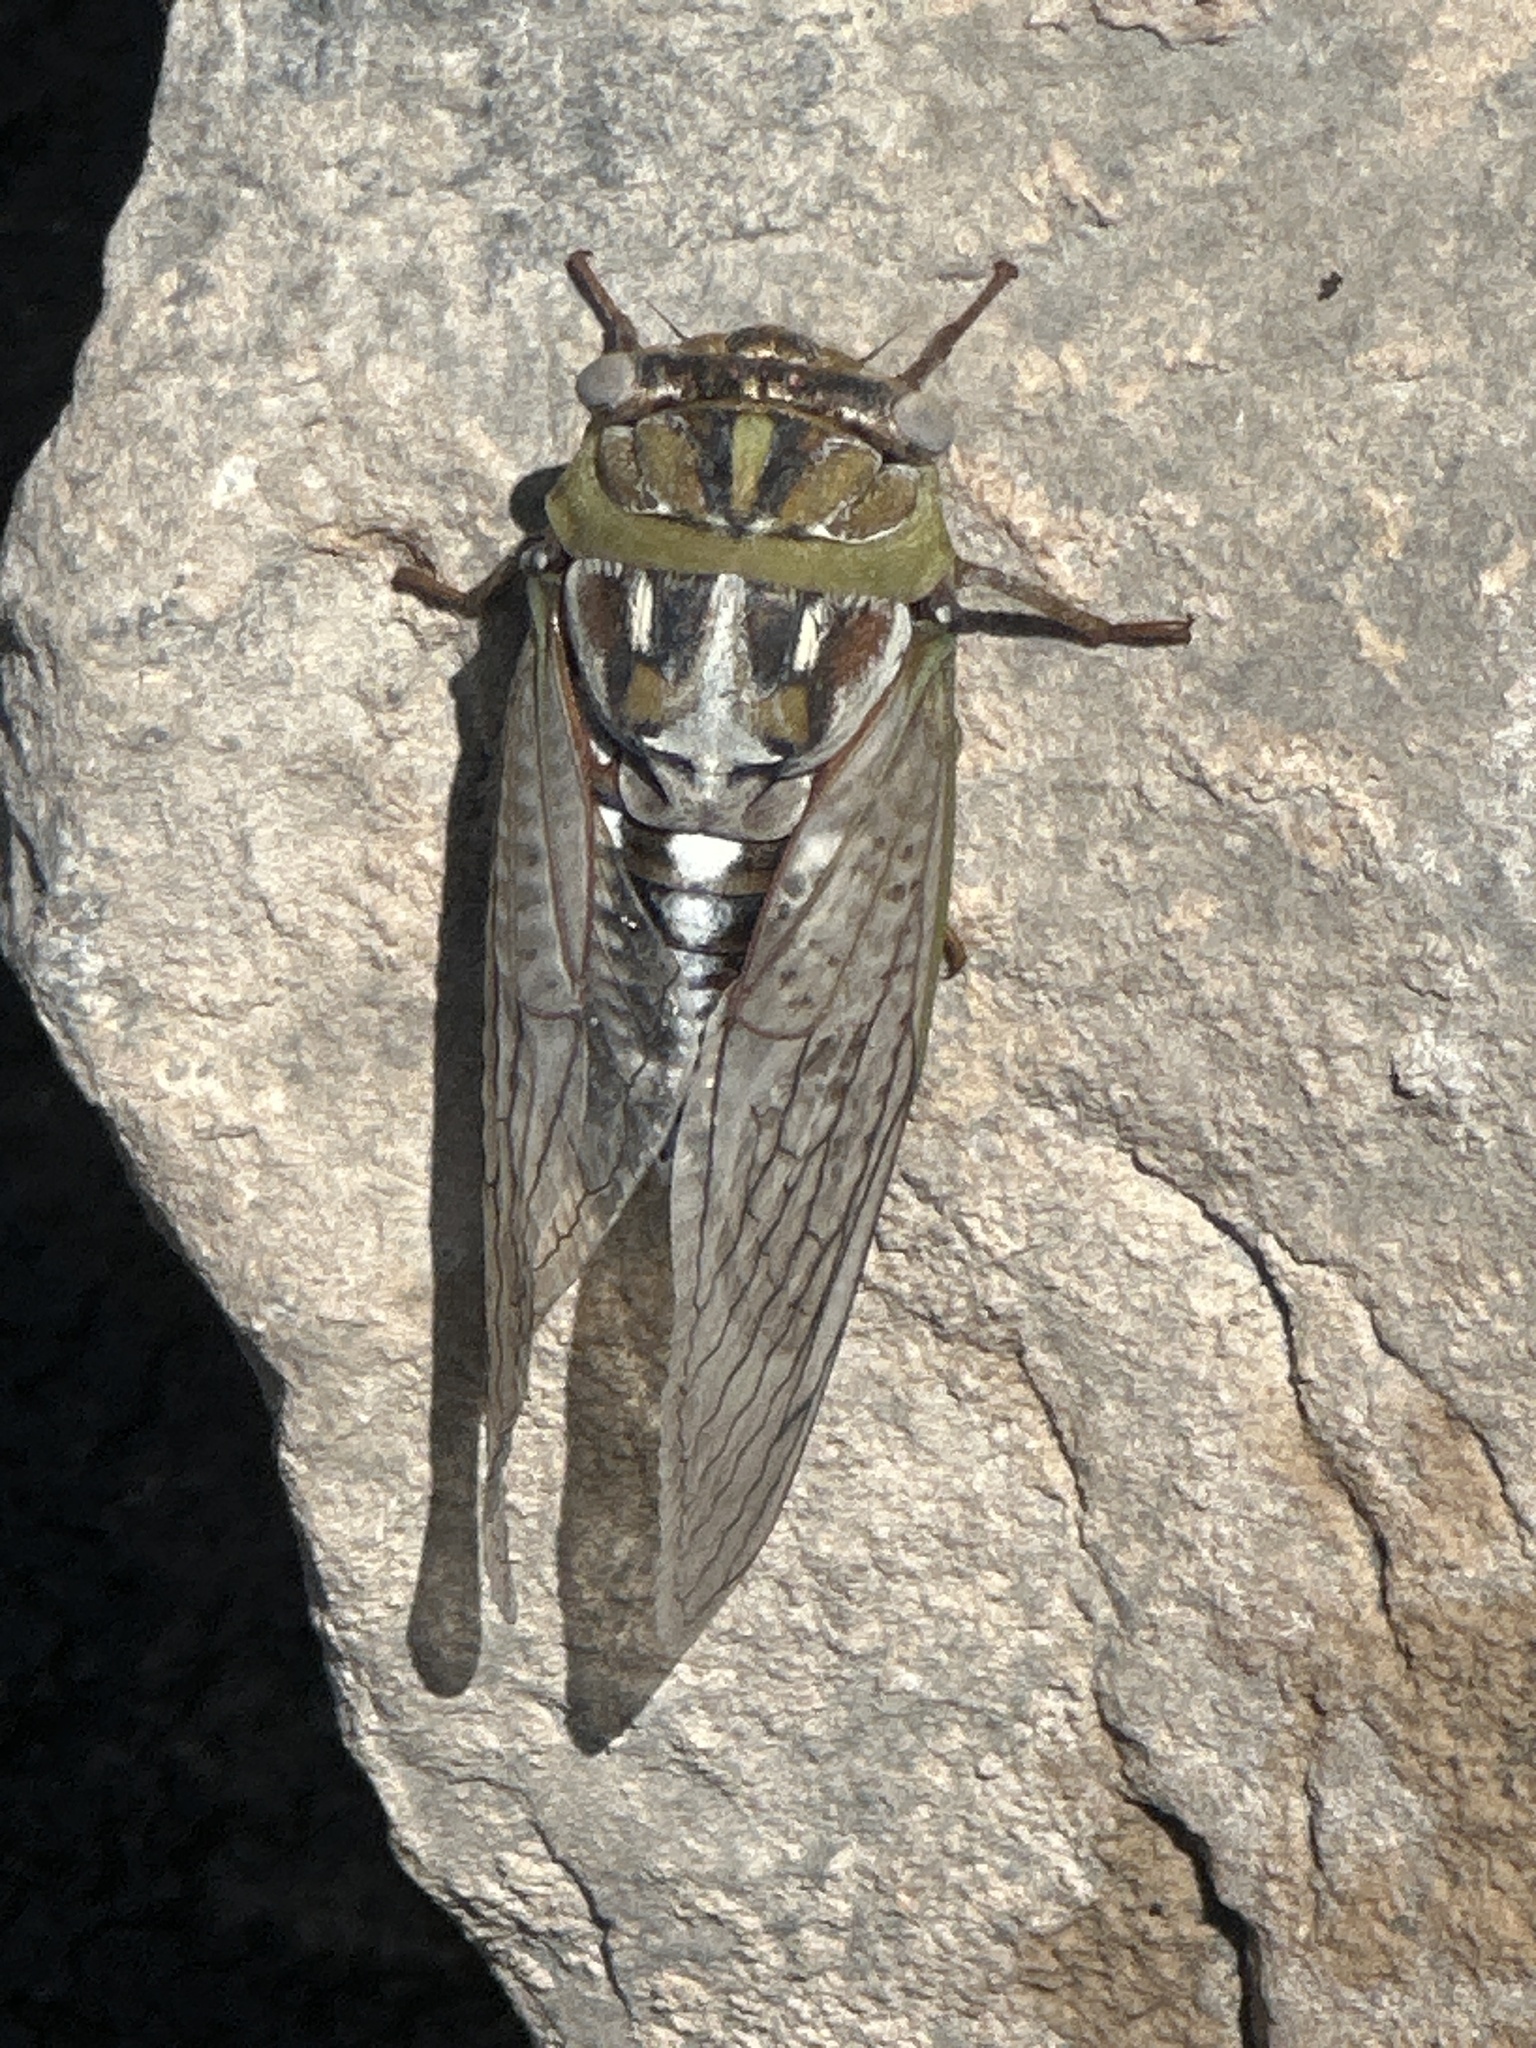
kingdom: Animalia
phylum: Arthropoda
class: Insecta
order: Hemiptera
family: Cicadidae
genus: Megatibicen
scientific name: Megatibicen dealbatus
